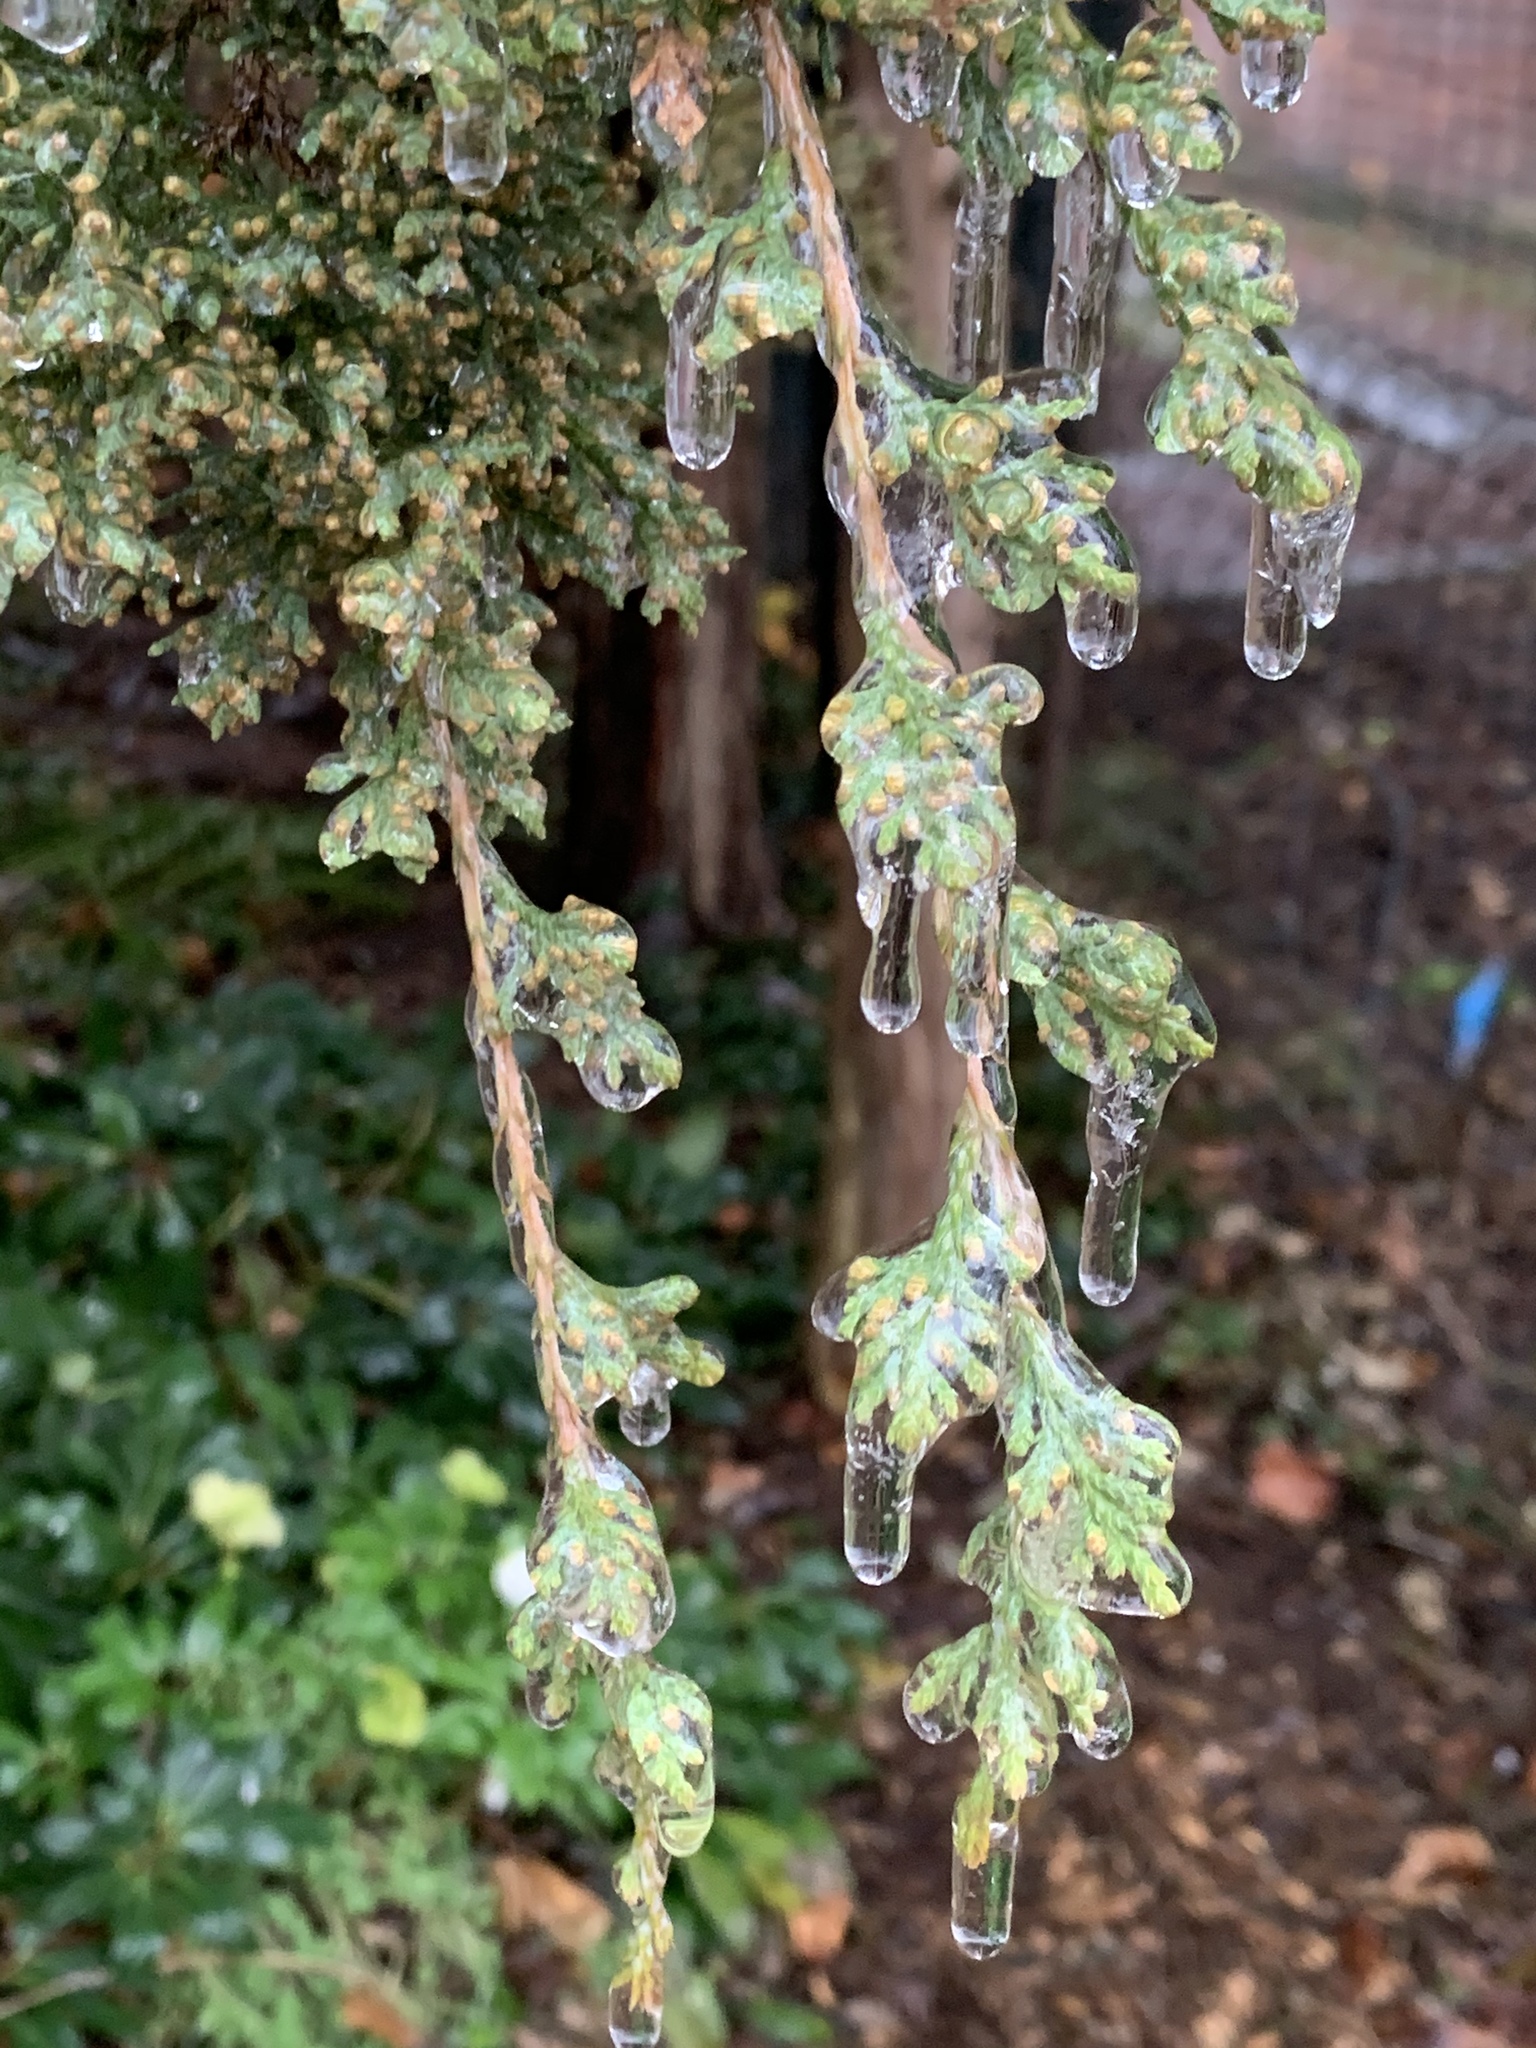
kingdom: Plantae
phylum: Tracheophyta
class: Pinopsida
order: Pinales
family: Cupressaceae
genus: Juniperus
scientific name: Juniperus virginiana
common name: Red juniper
